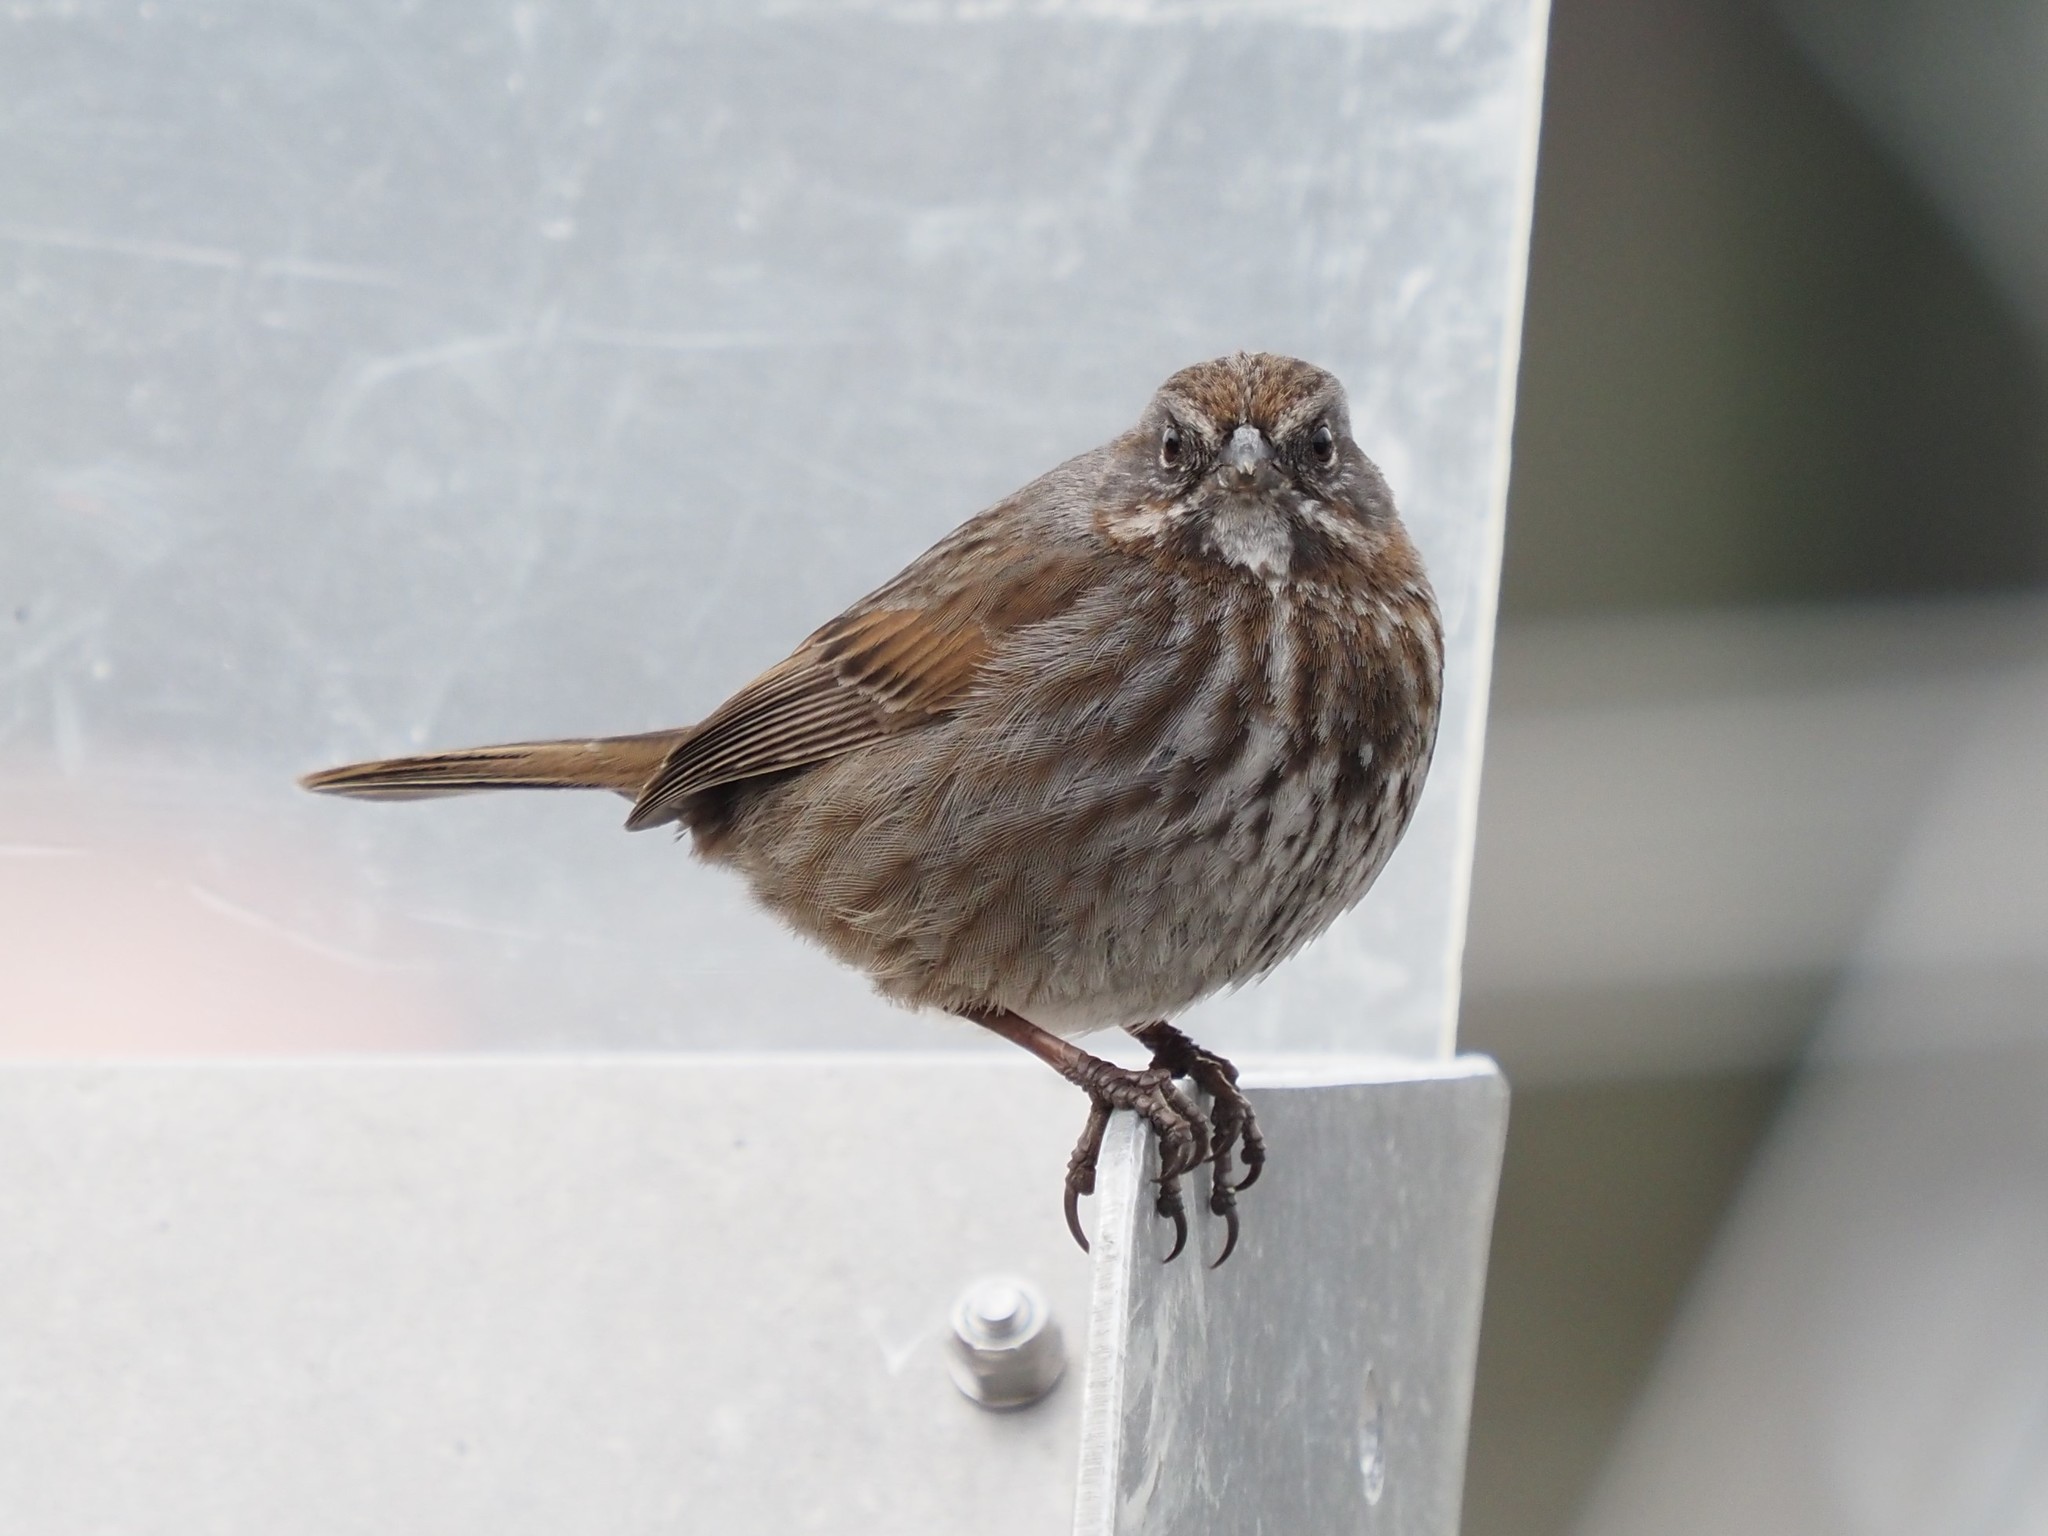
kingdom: Animalia
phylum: Chordata
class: Aves
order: Passeriformes
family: Passerellidae
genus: Melospiza
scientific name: Melospiza melodia
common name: Song sparrow
